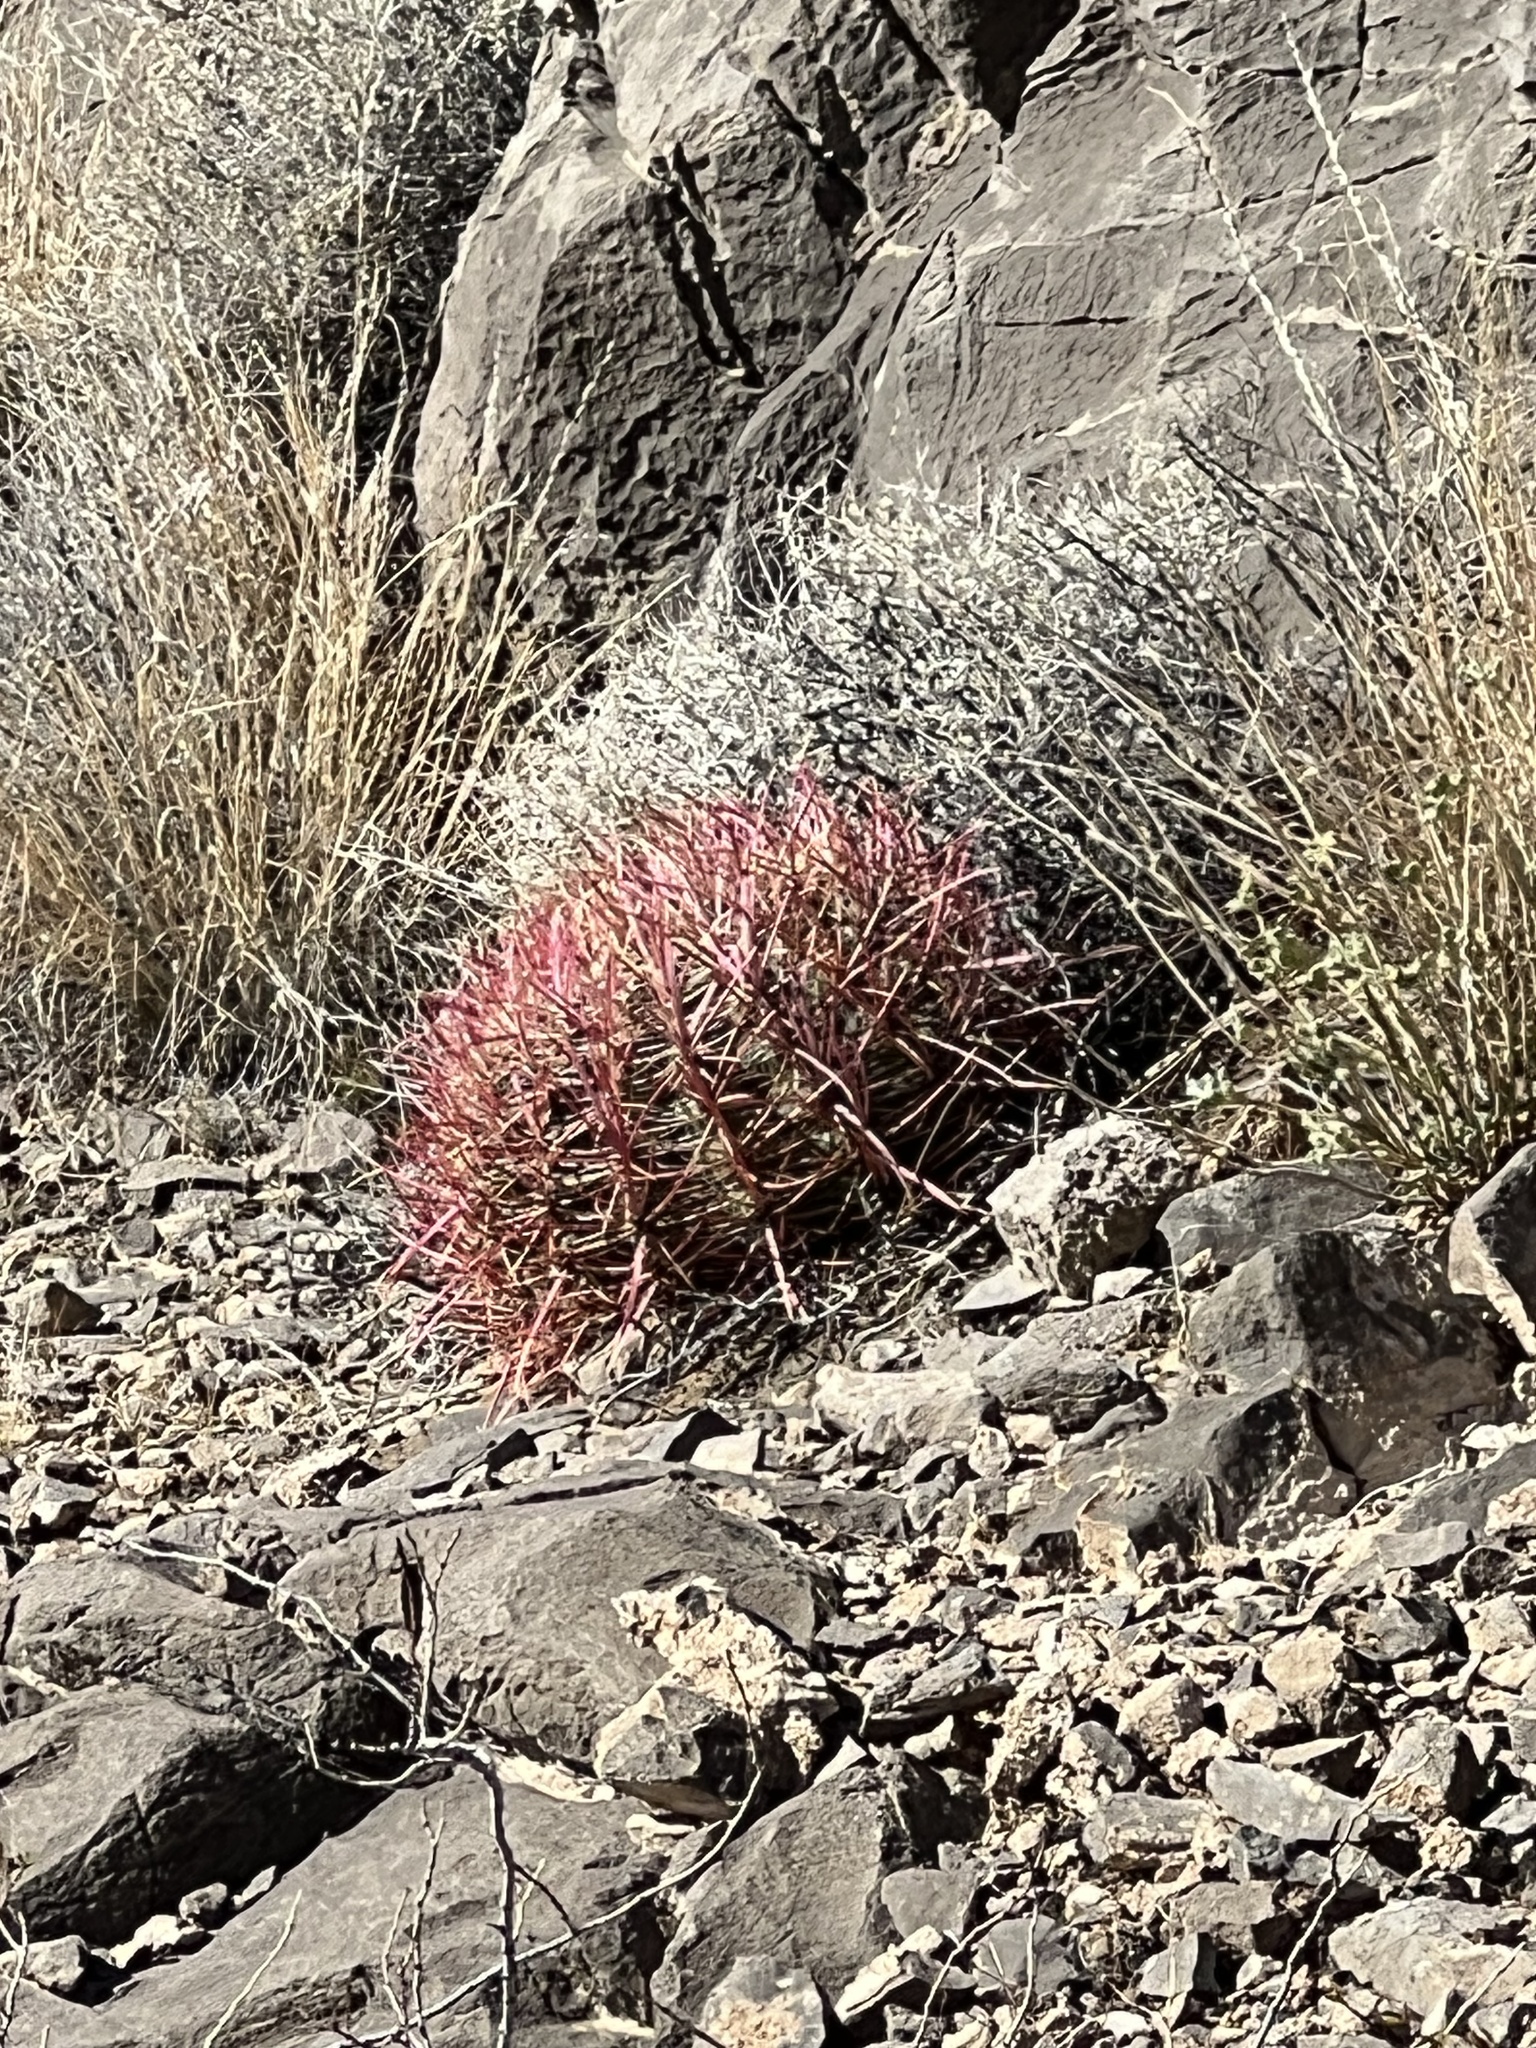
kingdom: Plantae
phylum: Tracheophyta
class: Magnoliopsida
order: Caryophyllales
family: Cactaceae
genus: Ferocactus
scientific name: Ferocactus cylindraceus
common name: California barrel cactus
